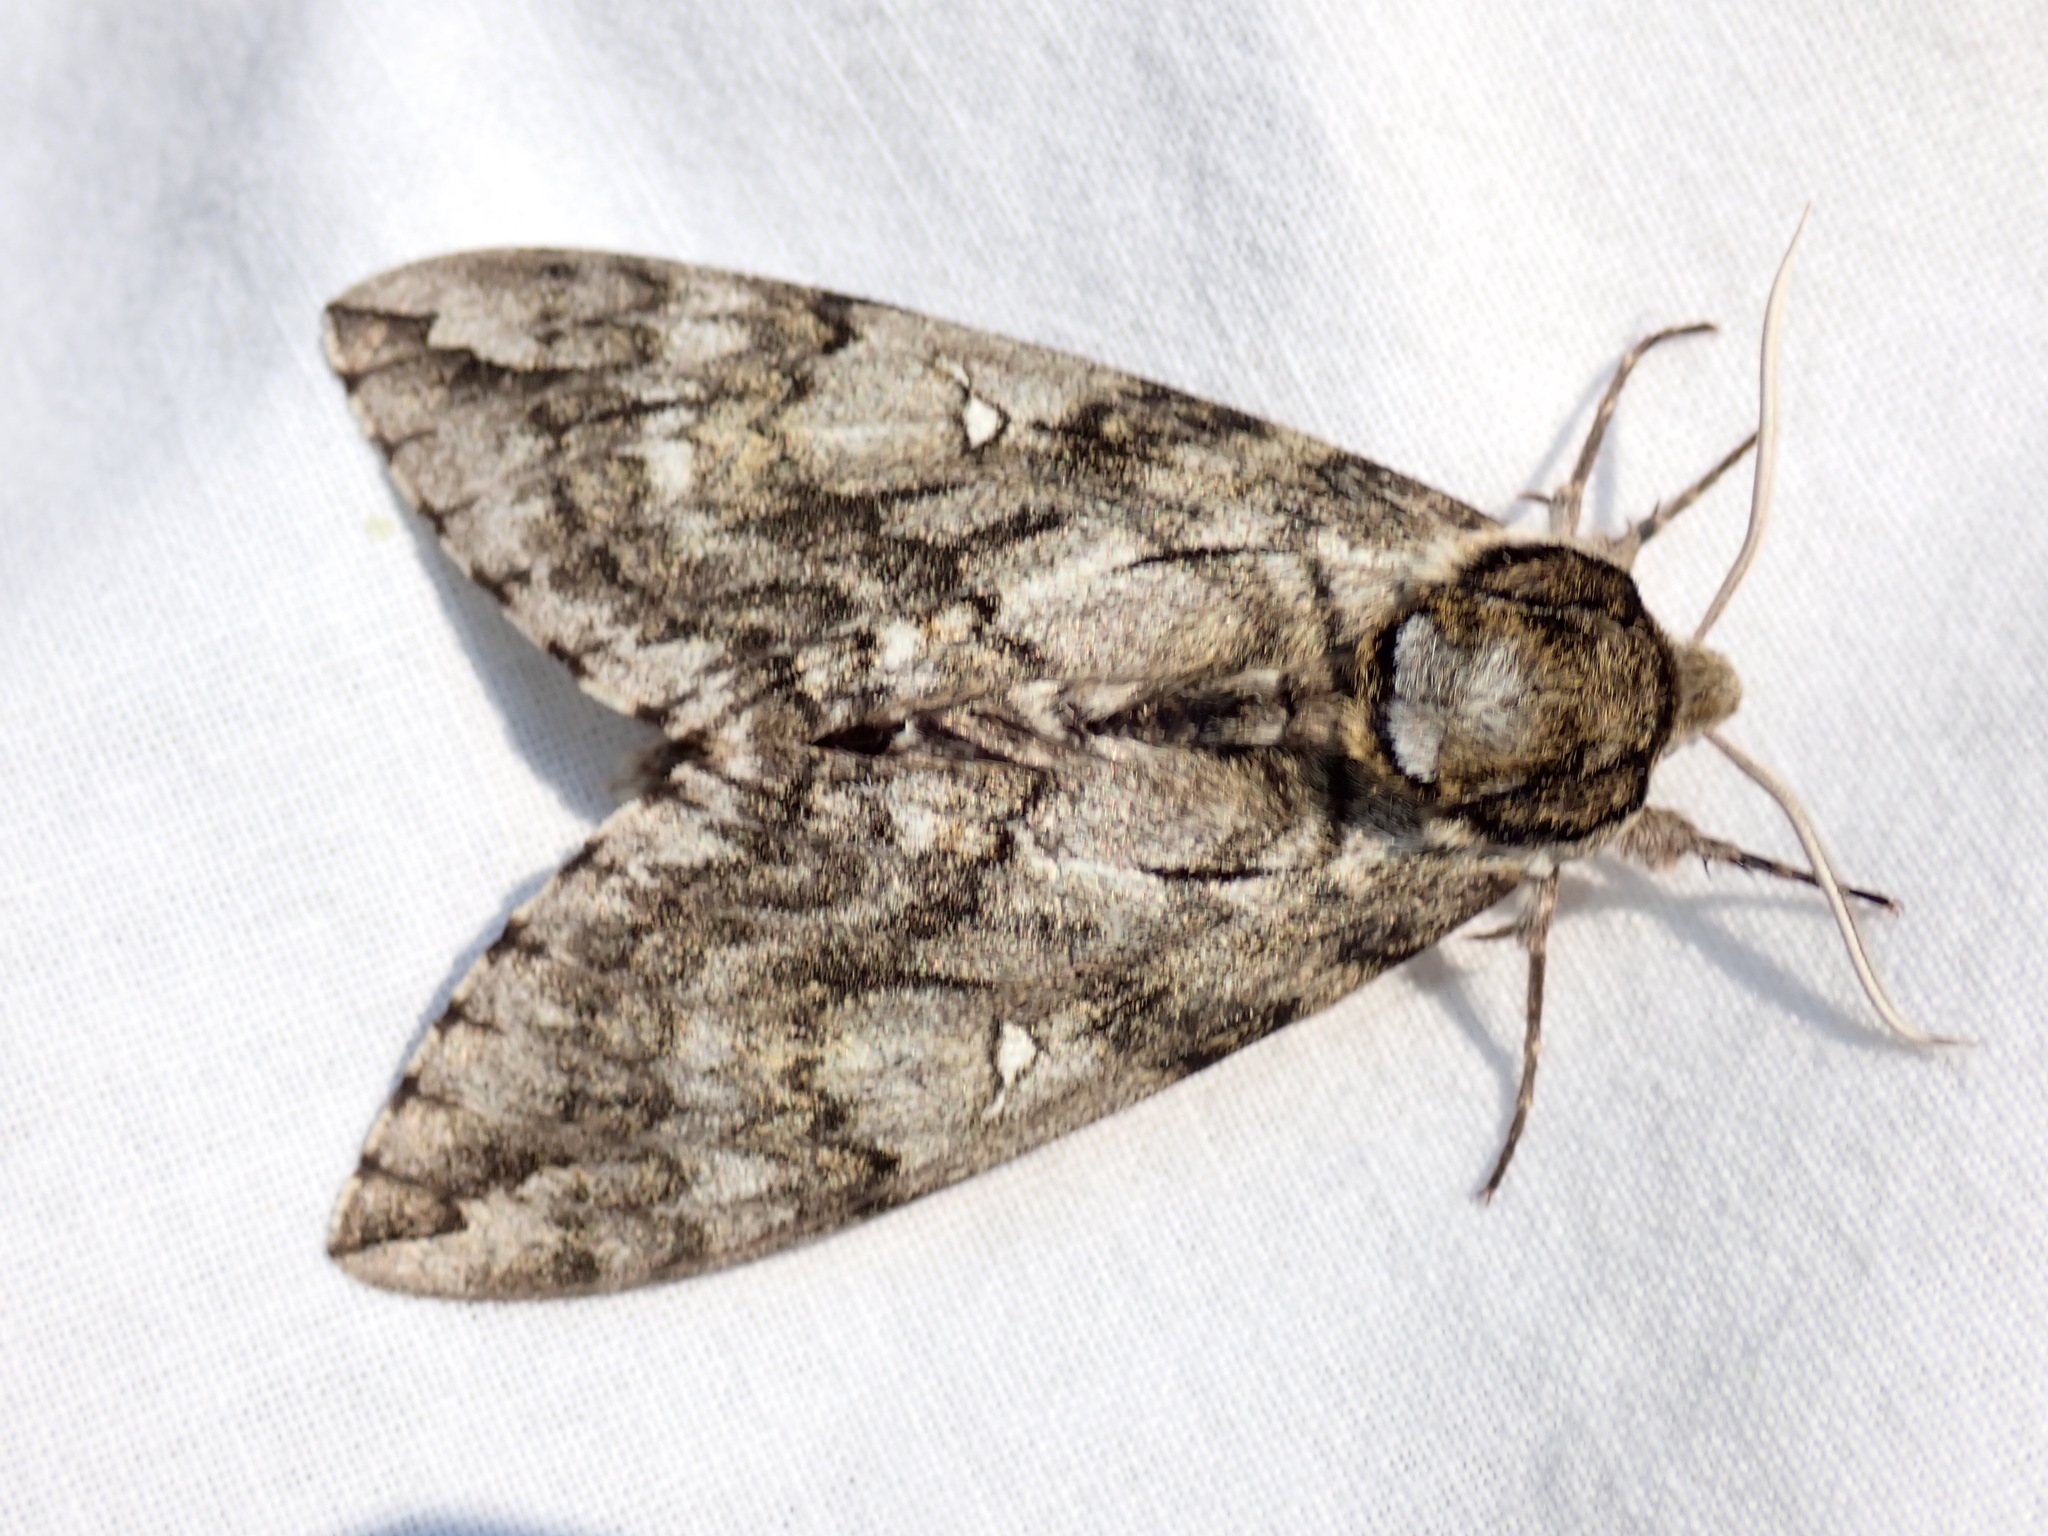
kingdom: Animalia
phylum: Arthropoda
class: Insecta
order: Lepidoptera
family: Sphingidae
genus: Ceratomia
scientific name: Ceratomia undulosa
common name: Waved sphinx
